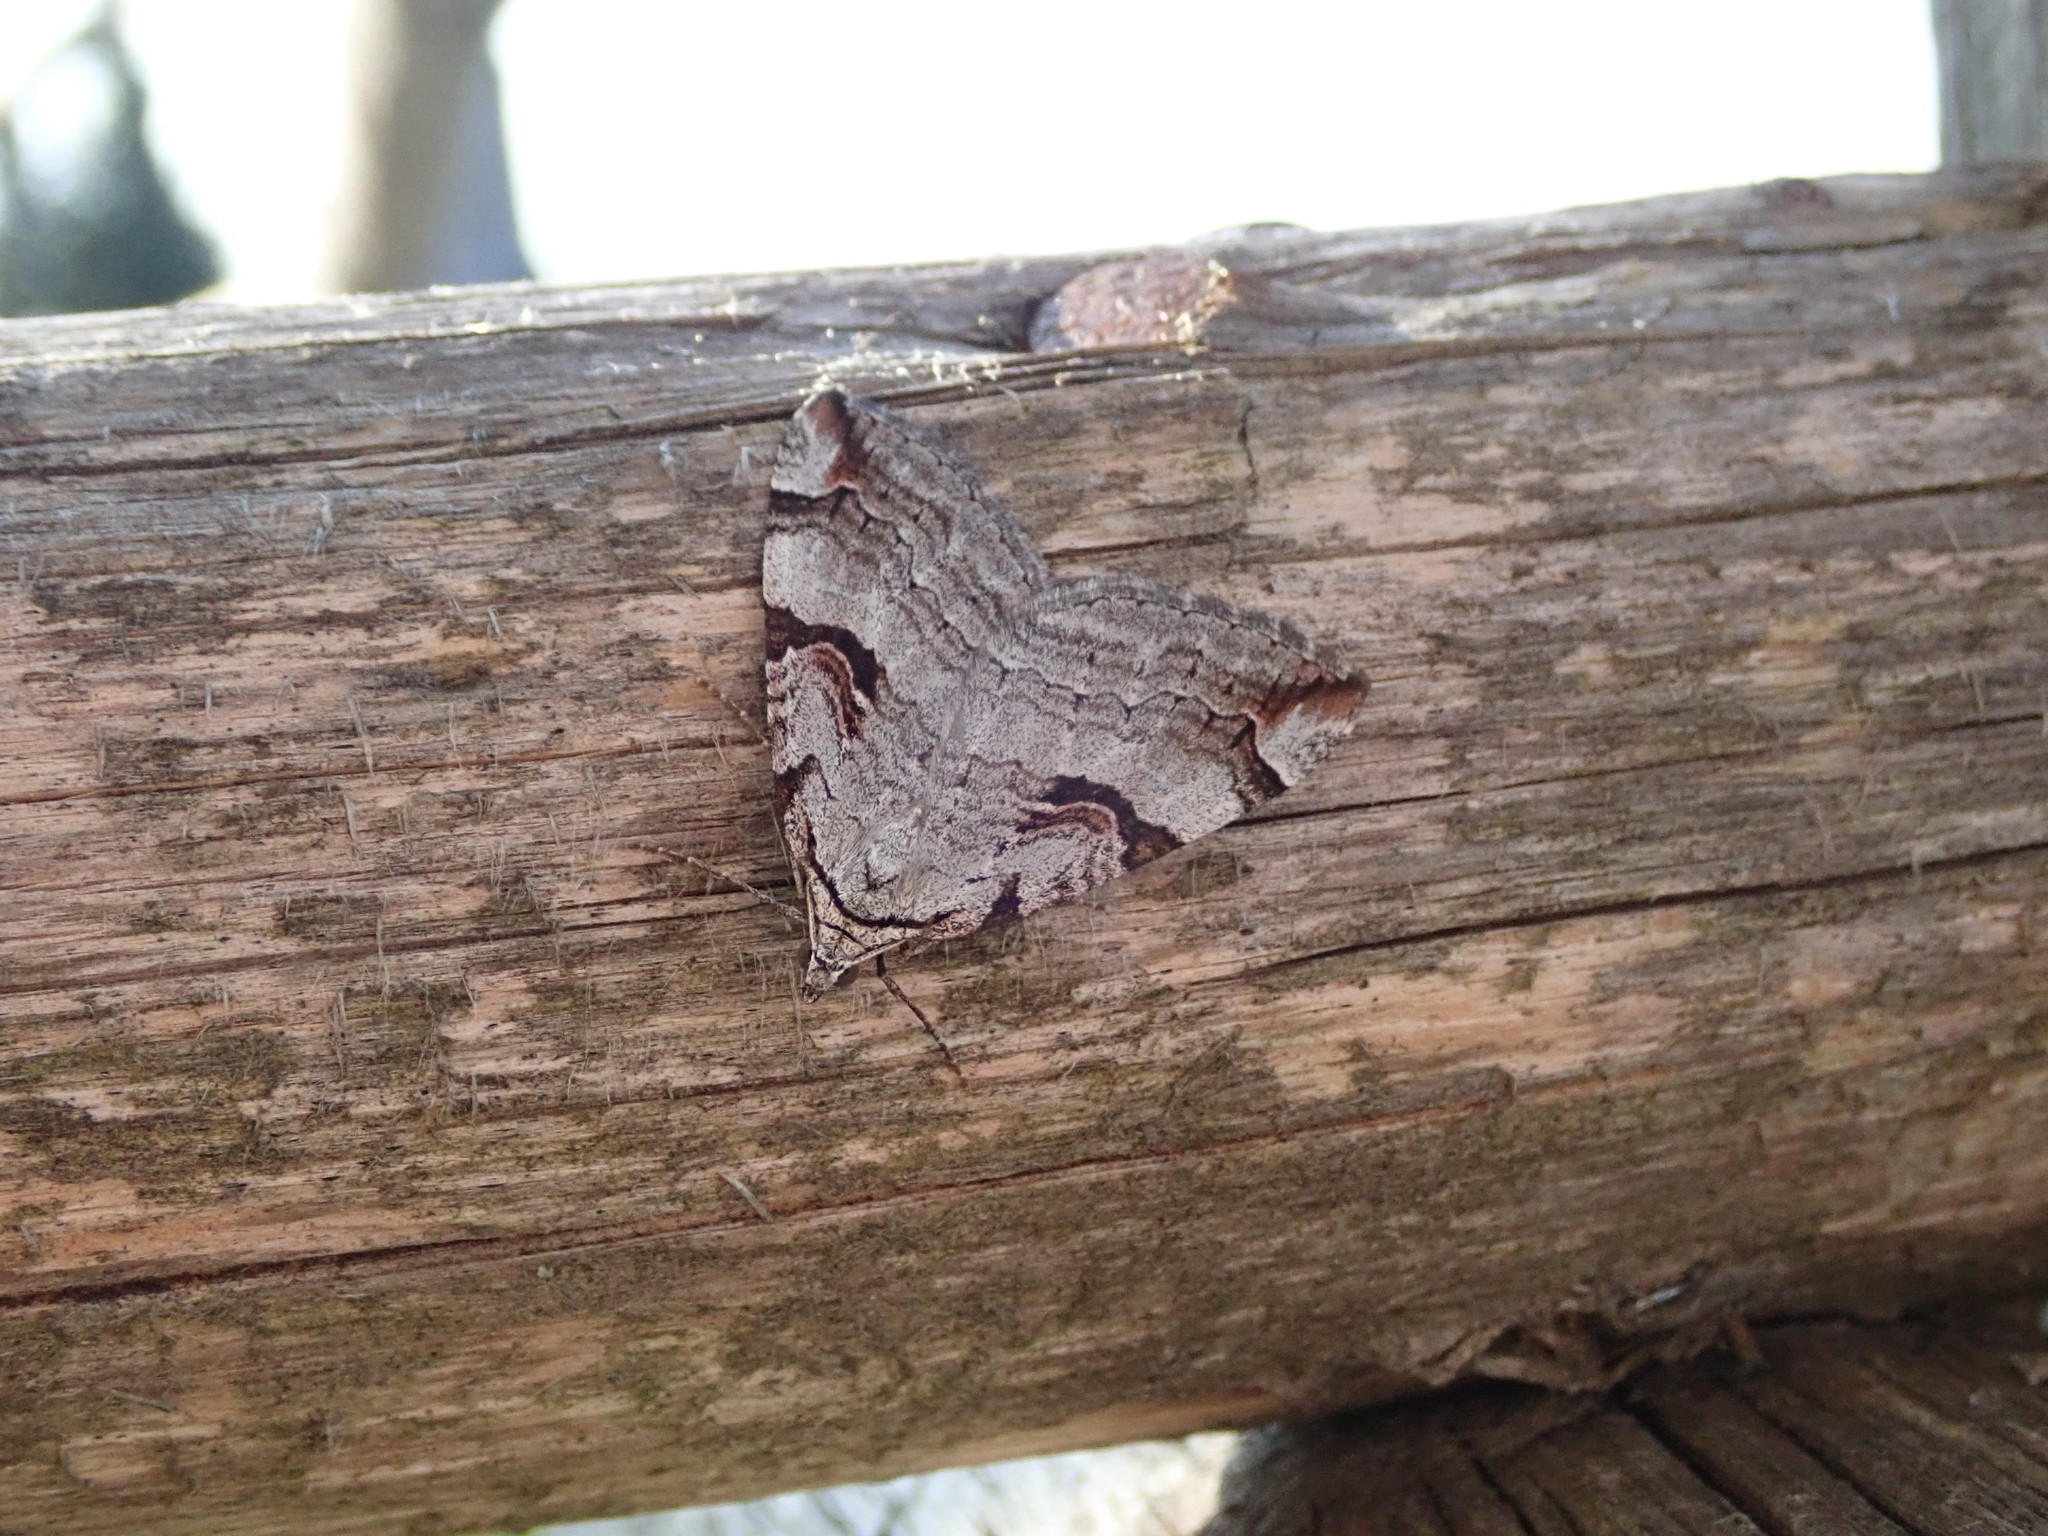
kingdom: Animalia
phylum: Arthropoda
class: Insecta
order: Lepidoptera
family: Geometridae
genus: Aplocera
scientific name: Aplocera praeformata
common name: Purple treble-bar
